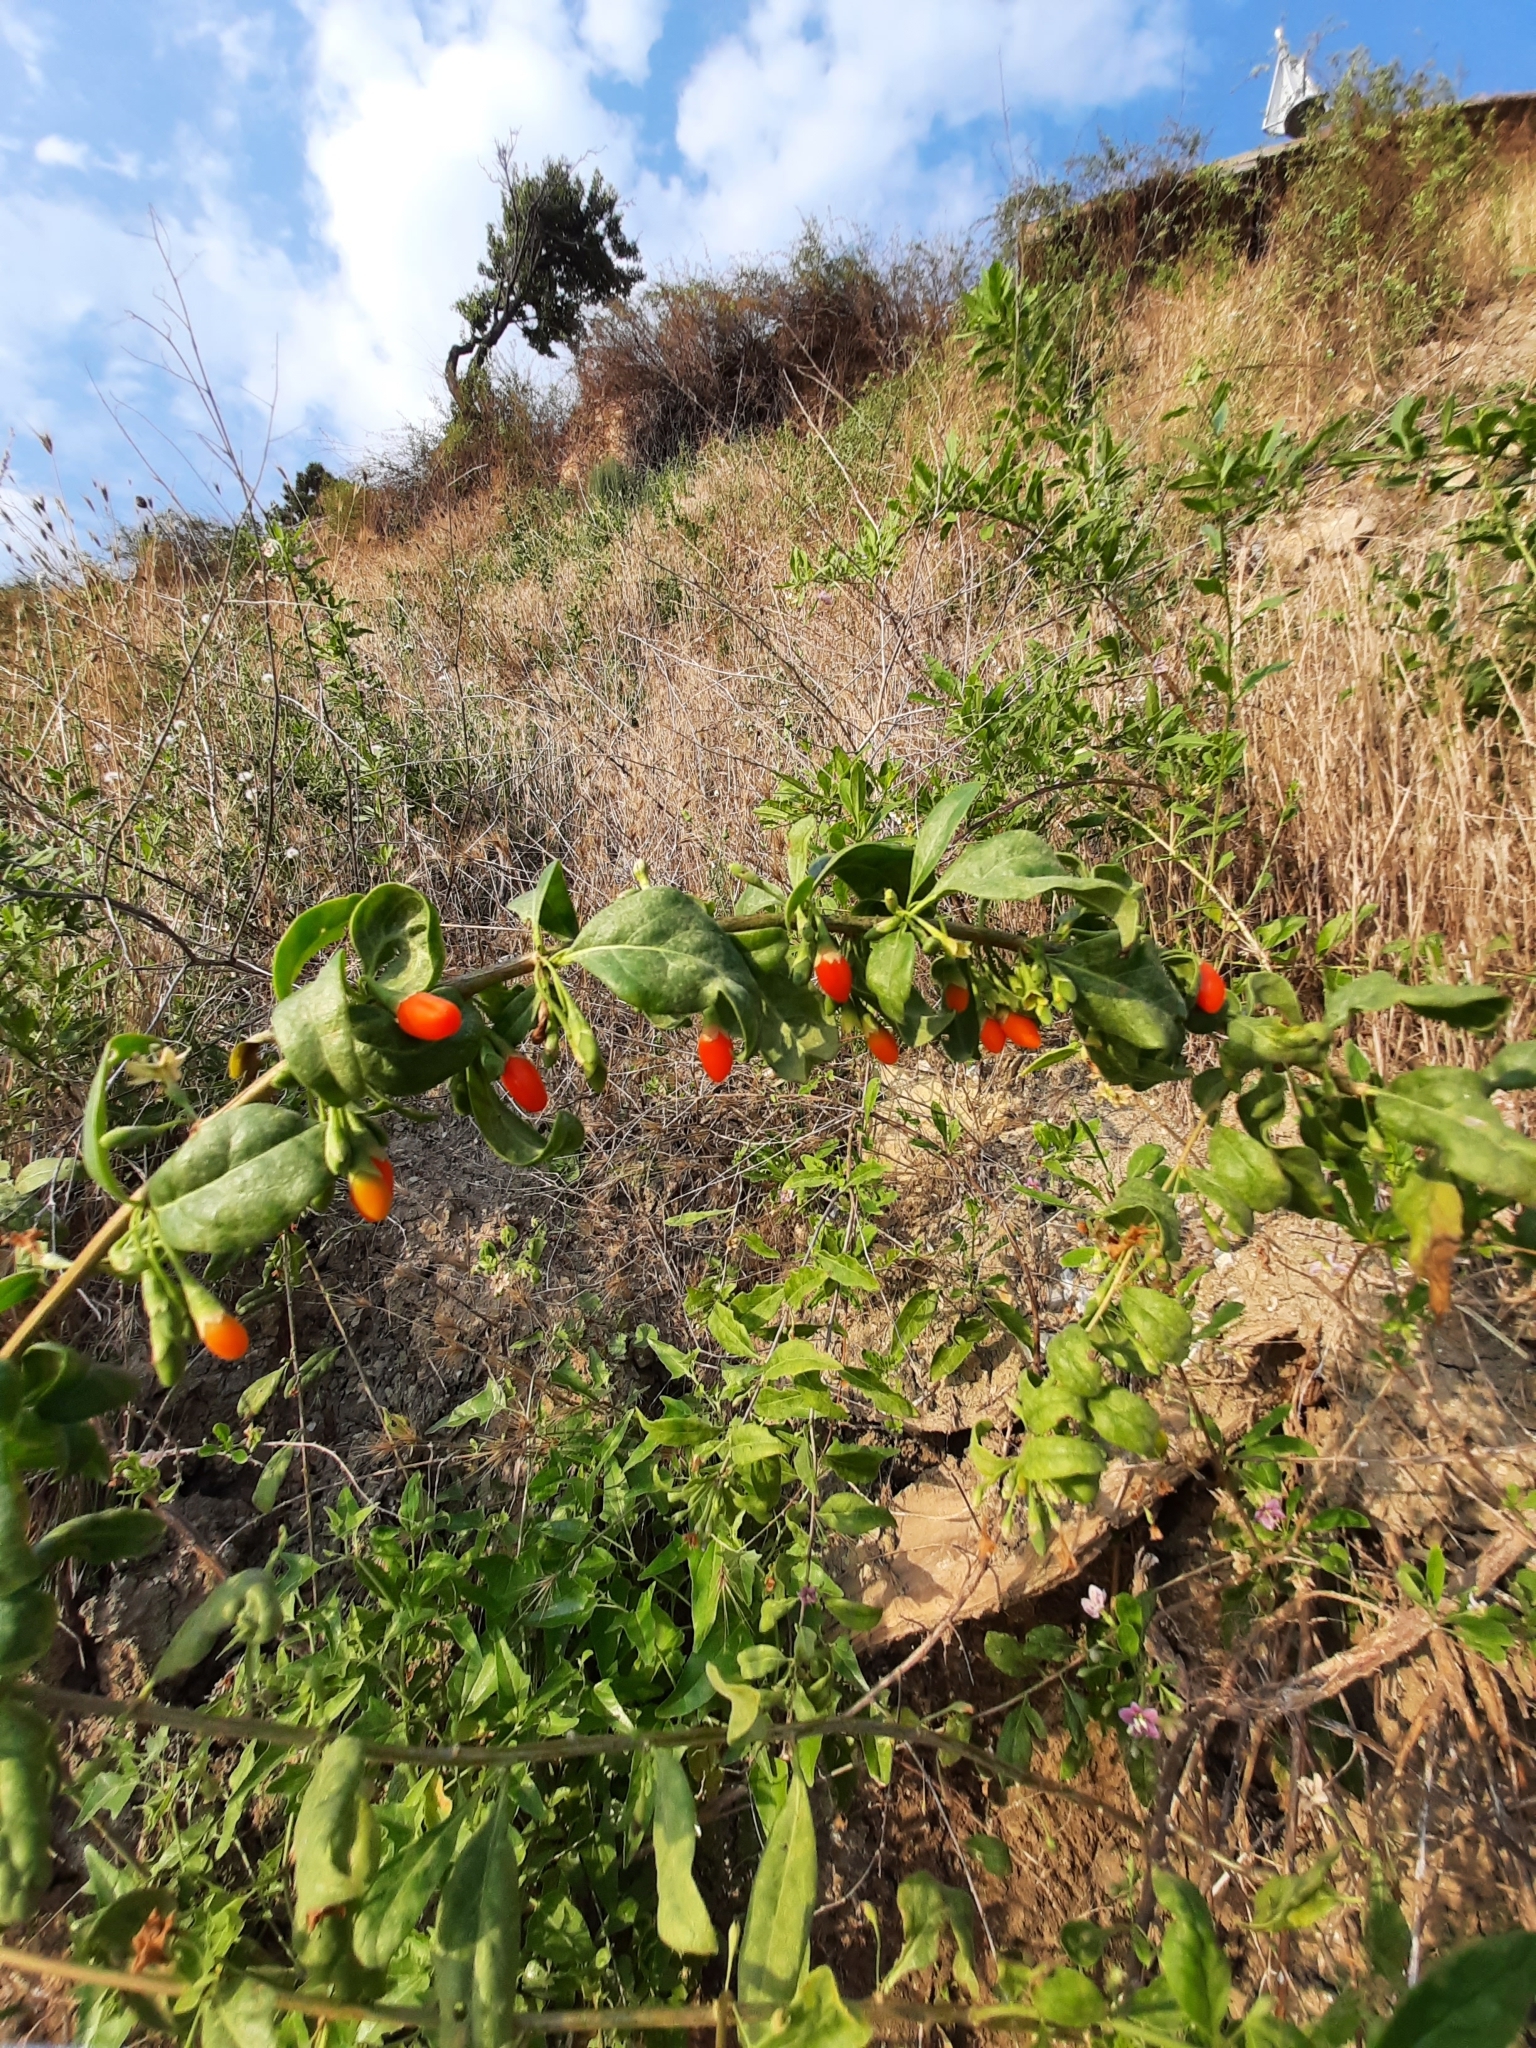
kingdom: Plantae
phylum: Tracheophyta
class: Magnoliopsida
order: Solanales
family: Solanaceae
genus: Lycium
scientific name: Lycium barbarum
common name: Duke of argyll's teaplant
